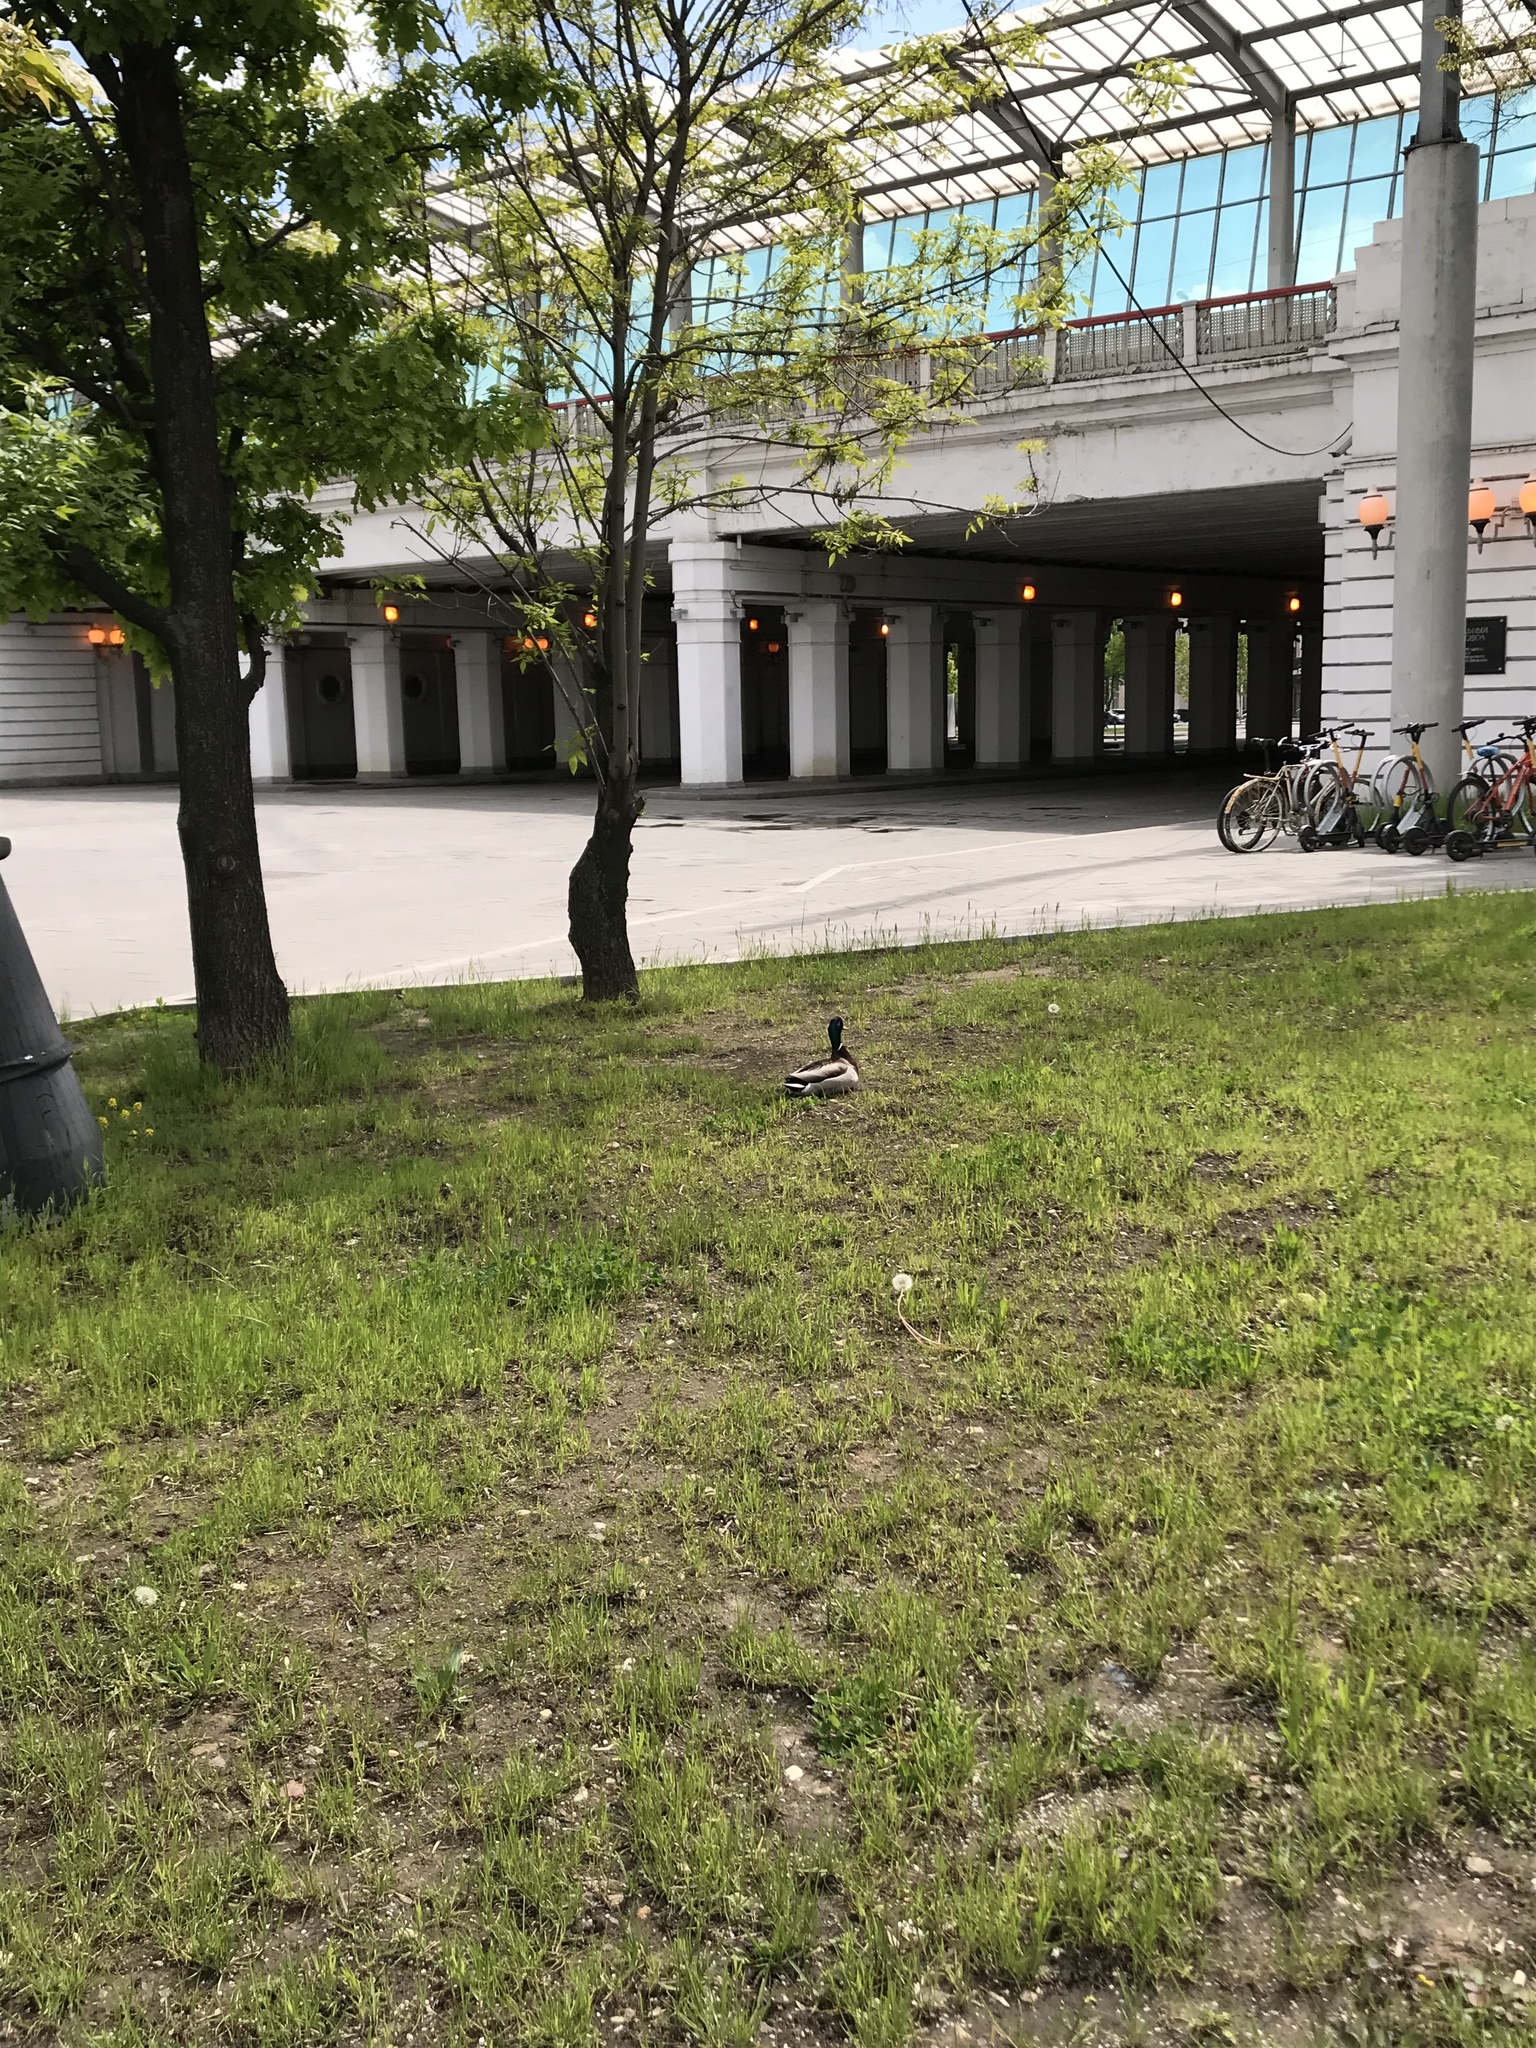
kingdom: Animalia
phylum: Chordata
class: Aves
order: Anseriformes
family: Anatidae
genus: Anas
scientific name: Anas platyrhynchos
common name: Mallard
